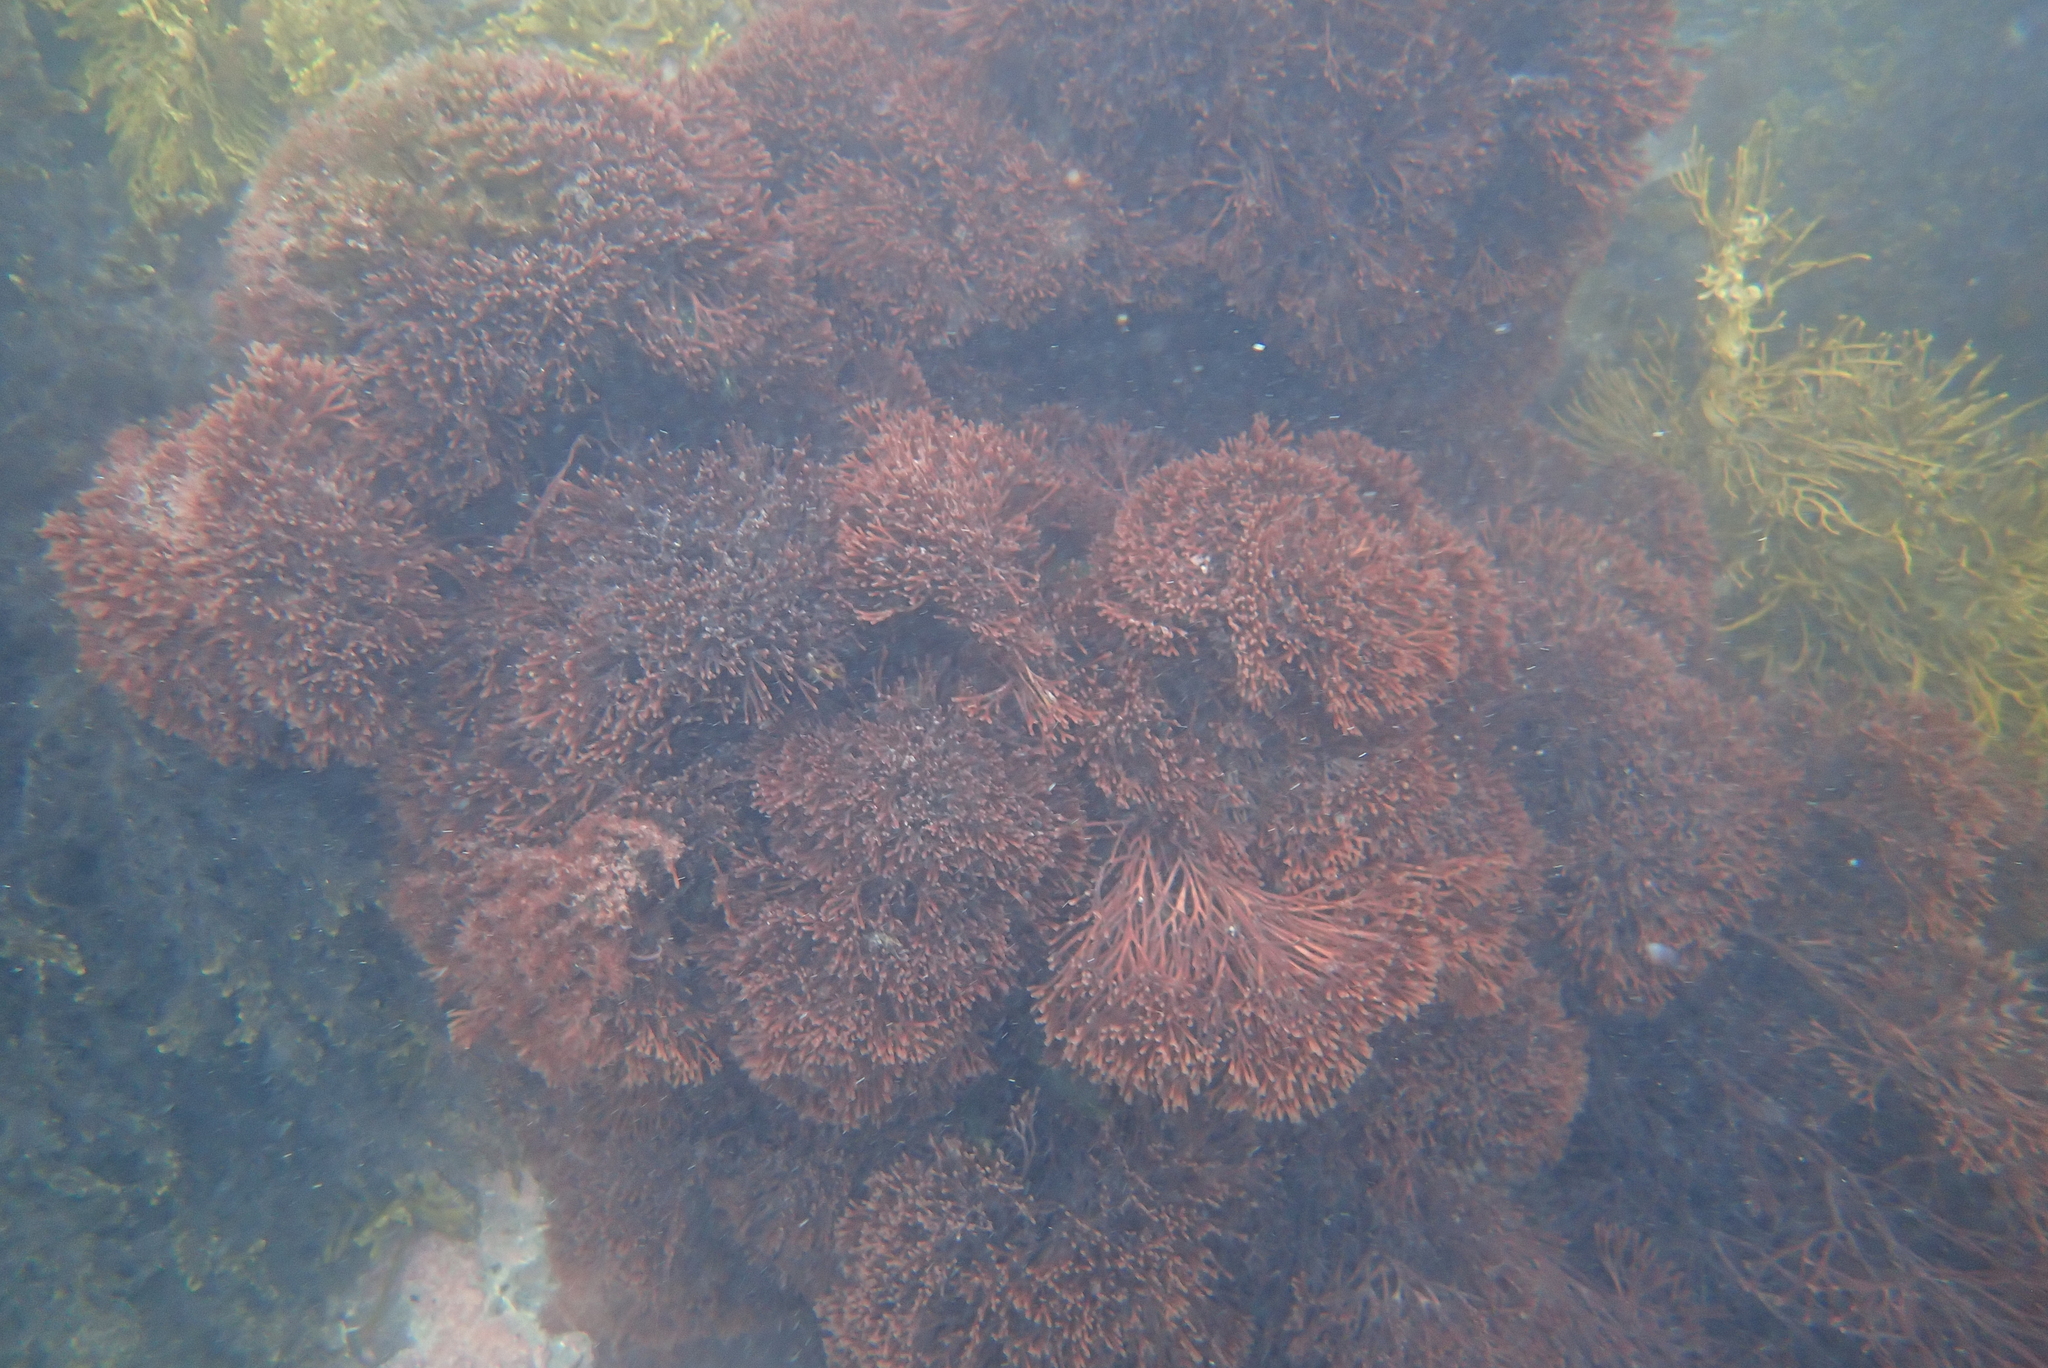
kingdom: Plantae
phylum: Rhodophyta
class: Florideophyceae
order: Gracilariales
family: Gracilariaceae
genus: Melanthalia
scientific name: Melanthalia abscissa
